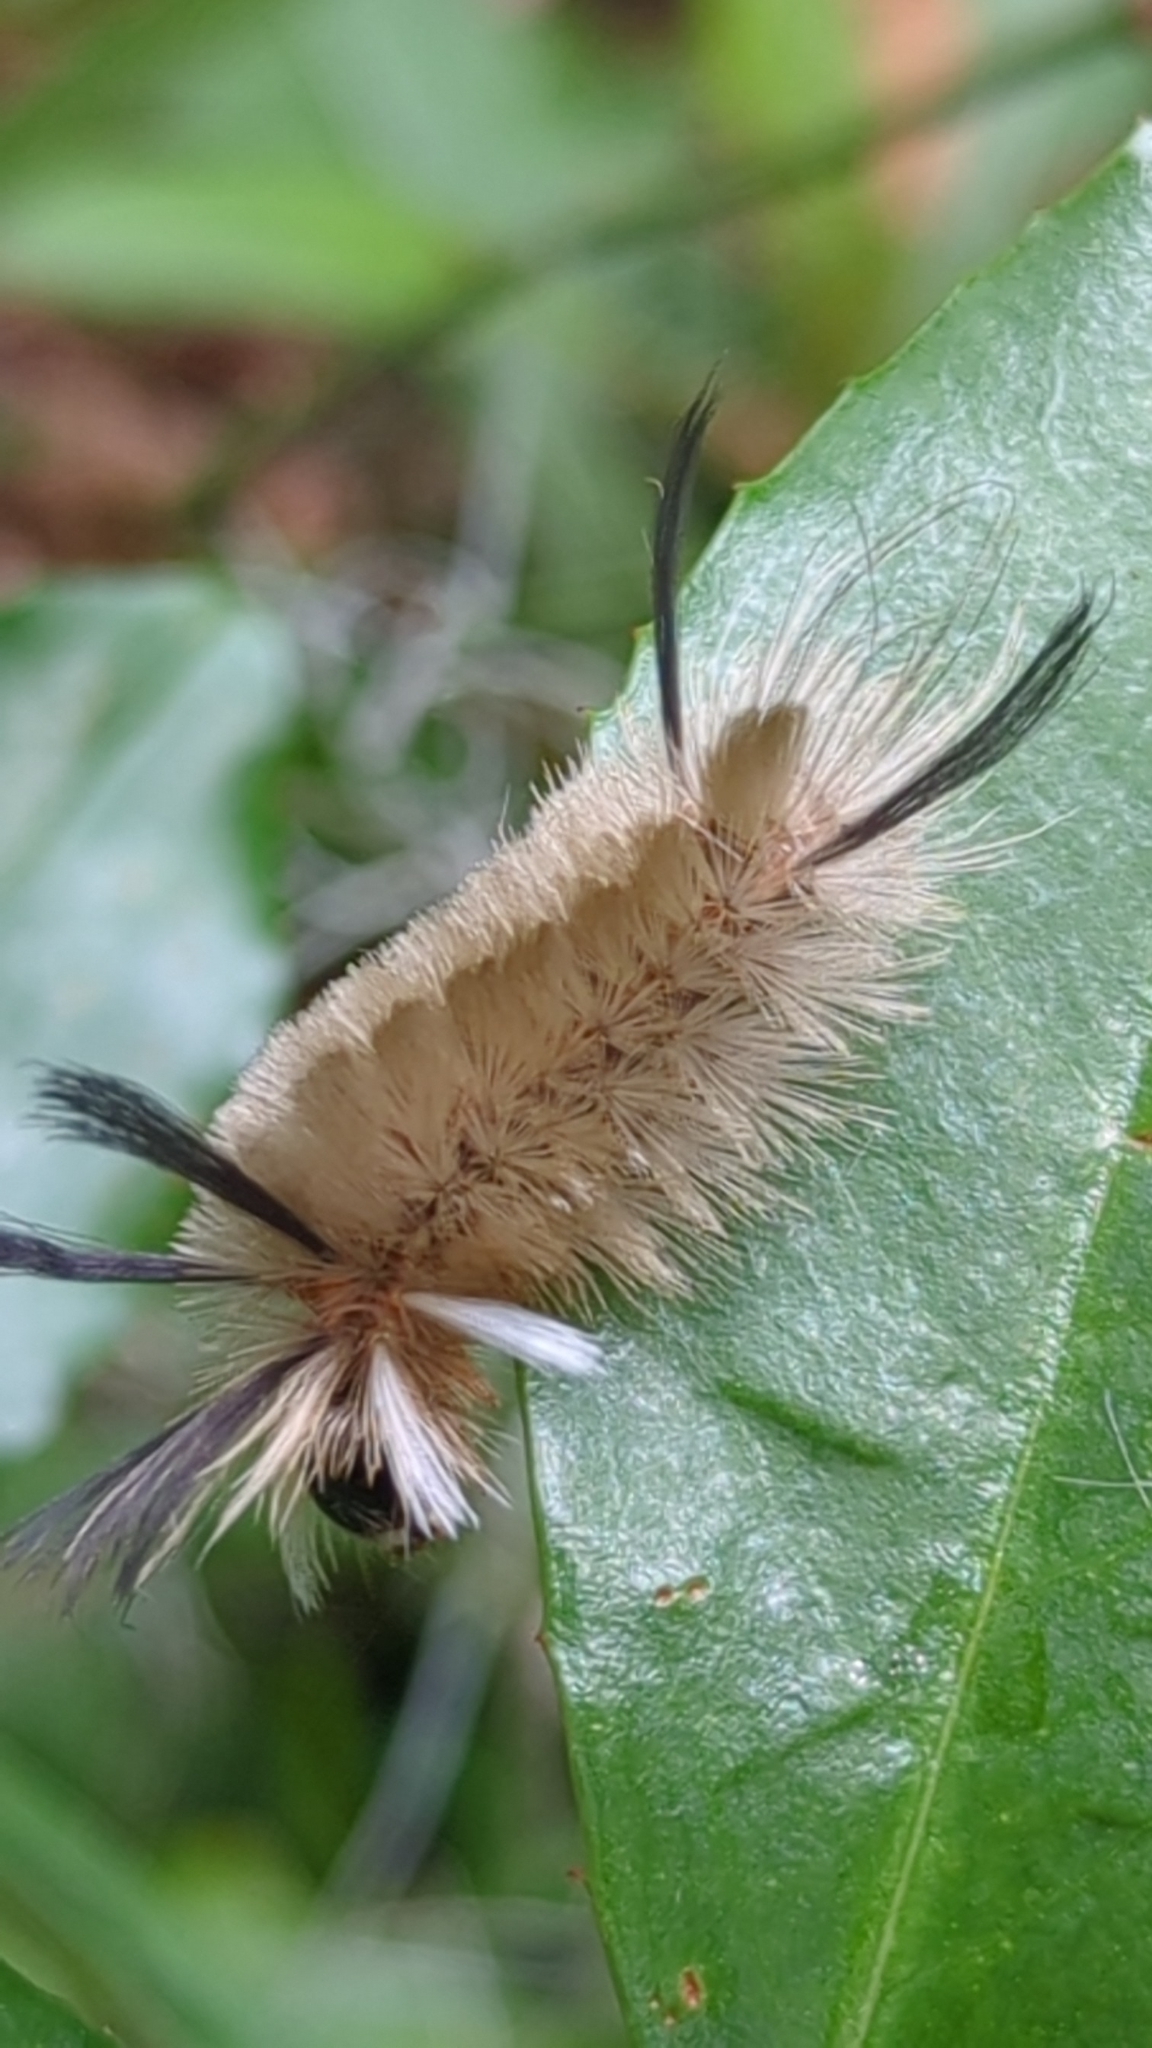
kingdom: Animalia
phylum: Arthropoda
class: Insecta
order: Lepidoptera
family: Erebidae
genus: Halysidota
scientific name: Halysidota tessellaris
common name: Banded tussock moth
